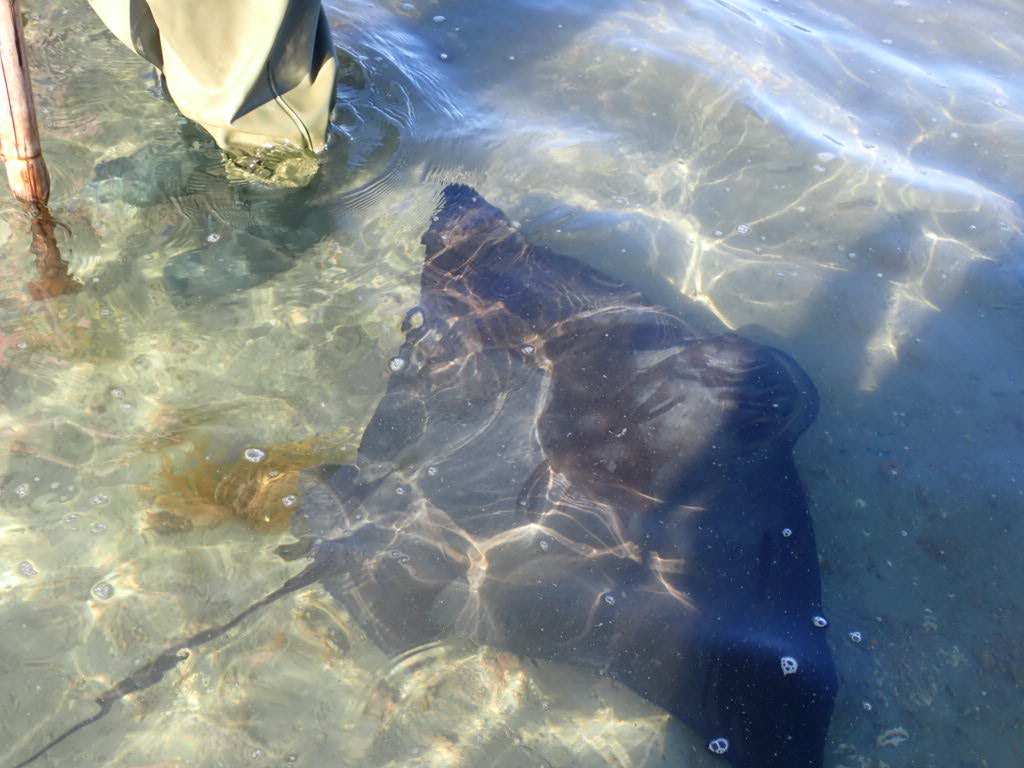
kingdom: Animalia
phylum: Chordata
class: Elasmobranchii
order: Myliobatiformes
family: Myliobatidae
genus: Myliobatis
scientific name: Myliobatis tenuicaudatus
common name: Eagle ray
